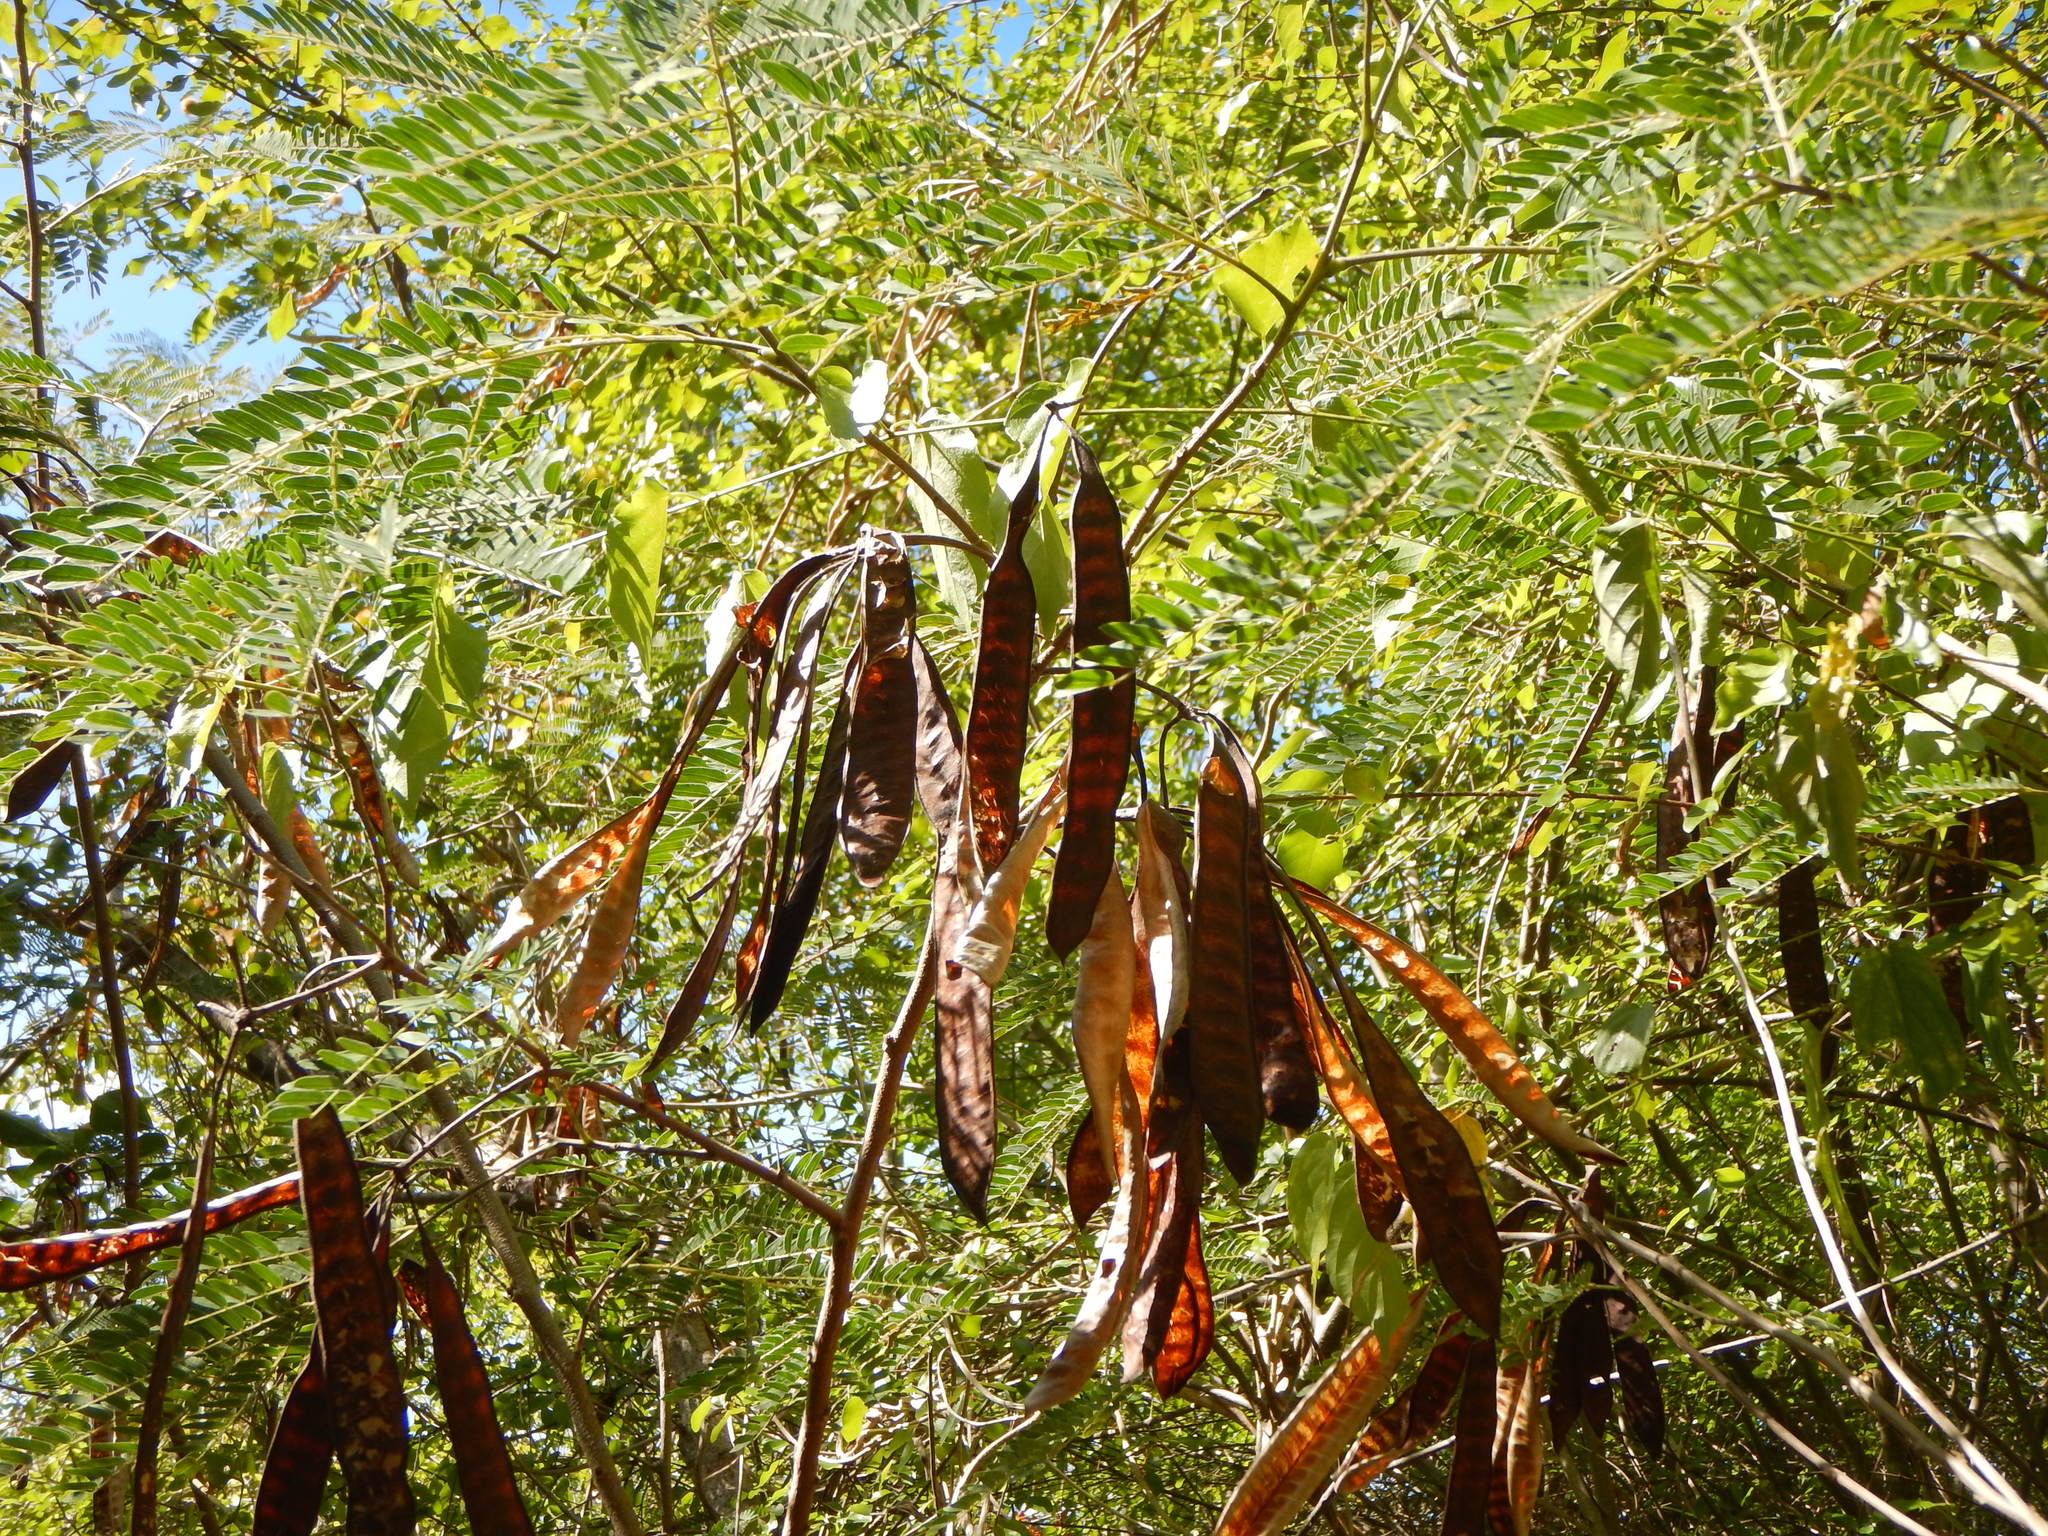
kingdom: Plantae
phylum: Tracheophyta
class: Magnoliopsida
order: Fabales
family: Fabaceae
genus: Leucaena
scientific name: Leucaena leucocephala
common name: White leadtree
